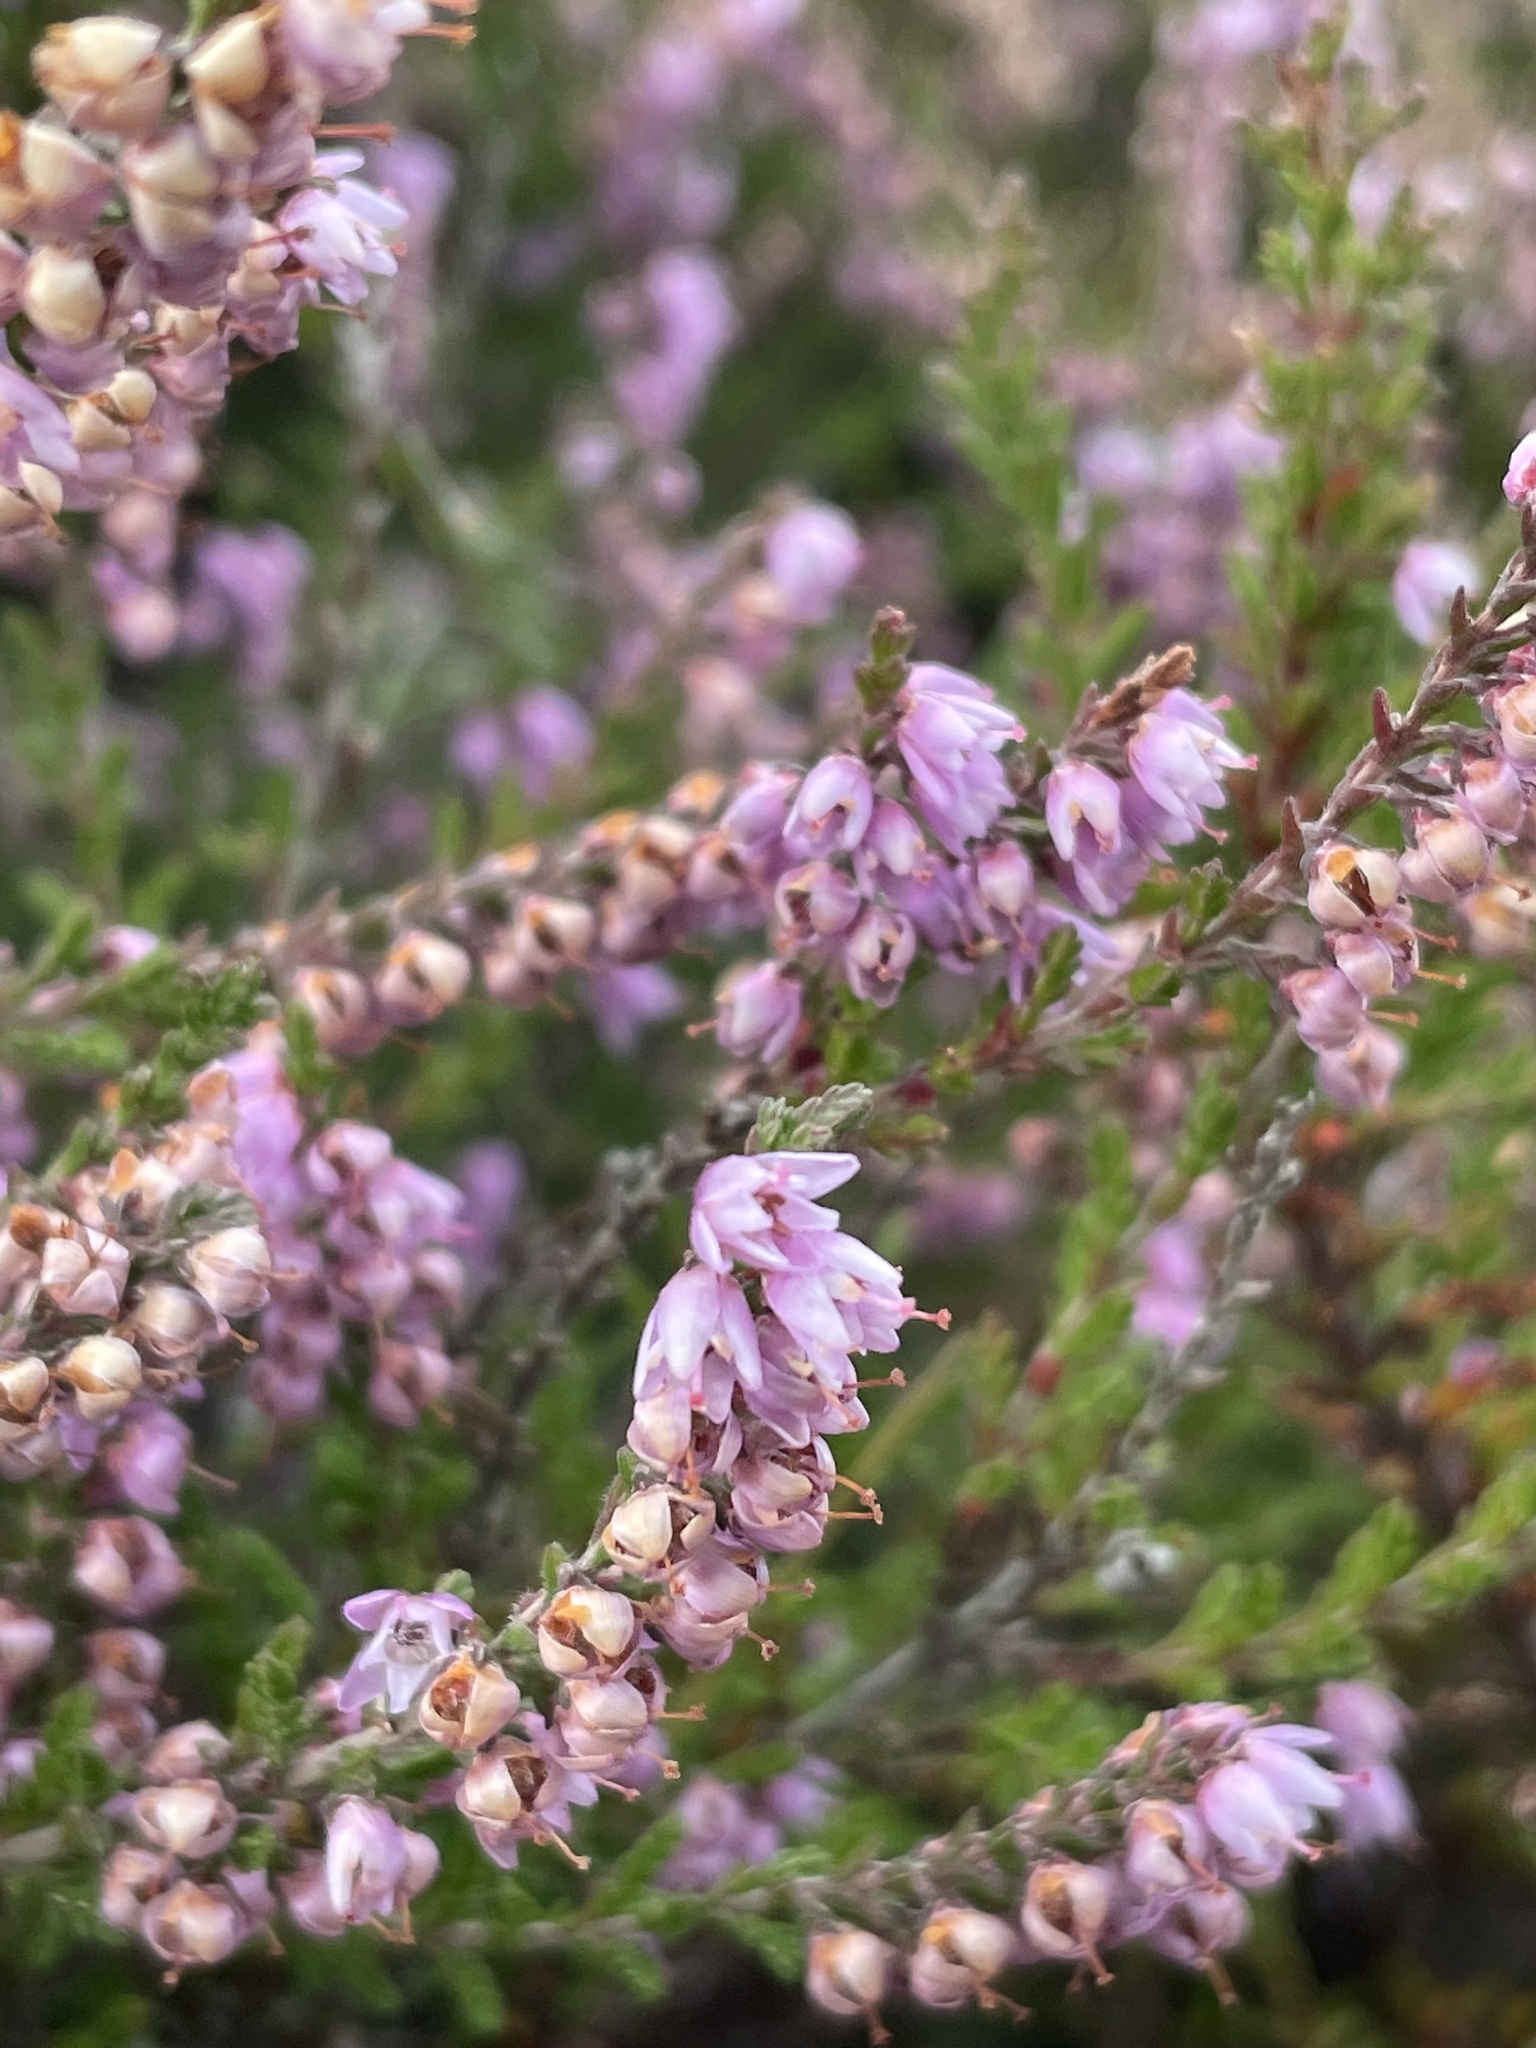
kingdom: Plantae
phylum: Tracheophyta
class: Magnoliopsida
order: Ericales
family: Ericaceae
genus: Calluna
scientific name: Calluna vulgaris
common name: Heather
